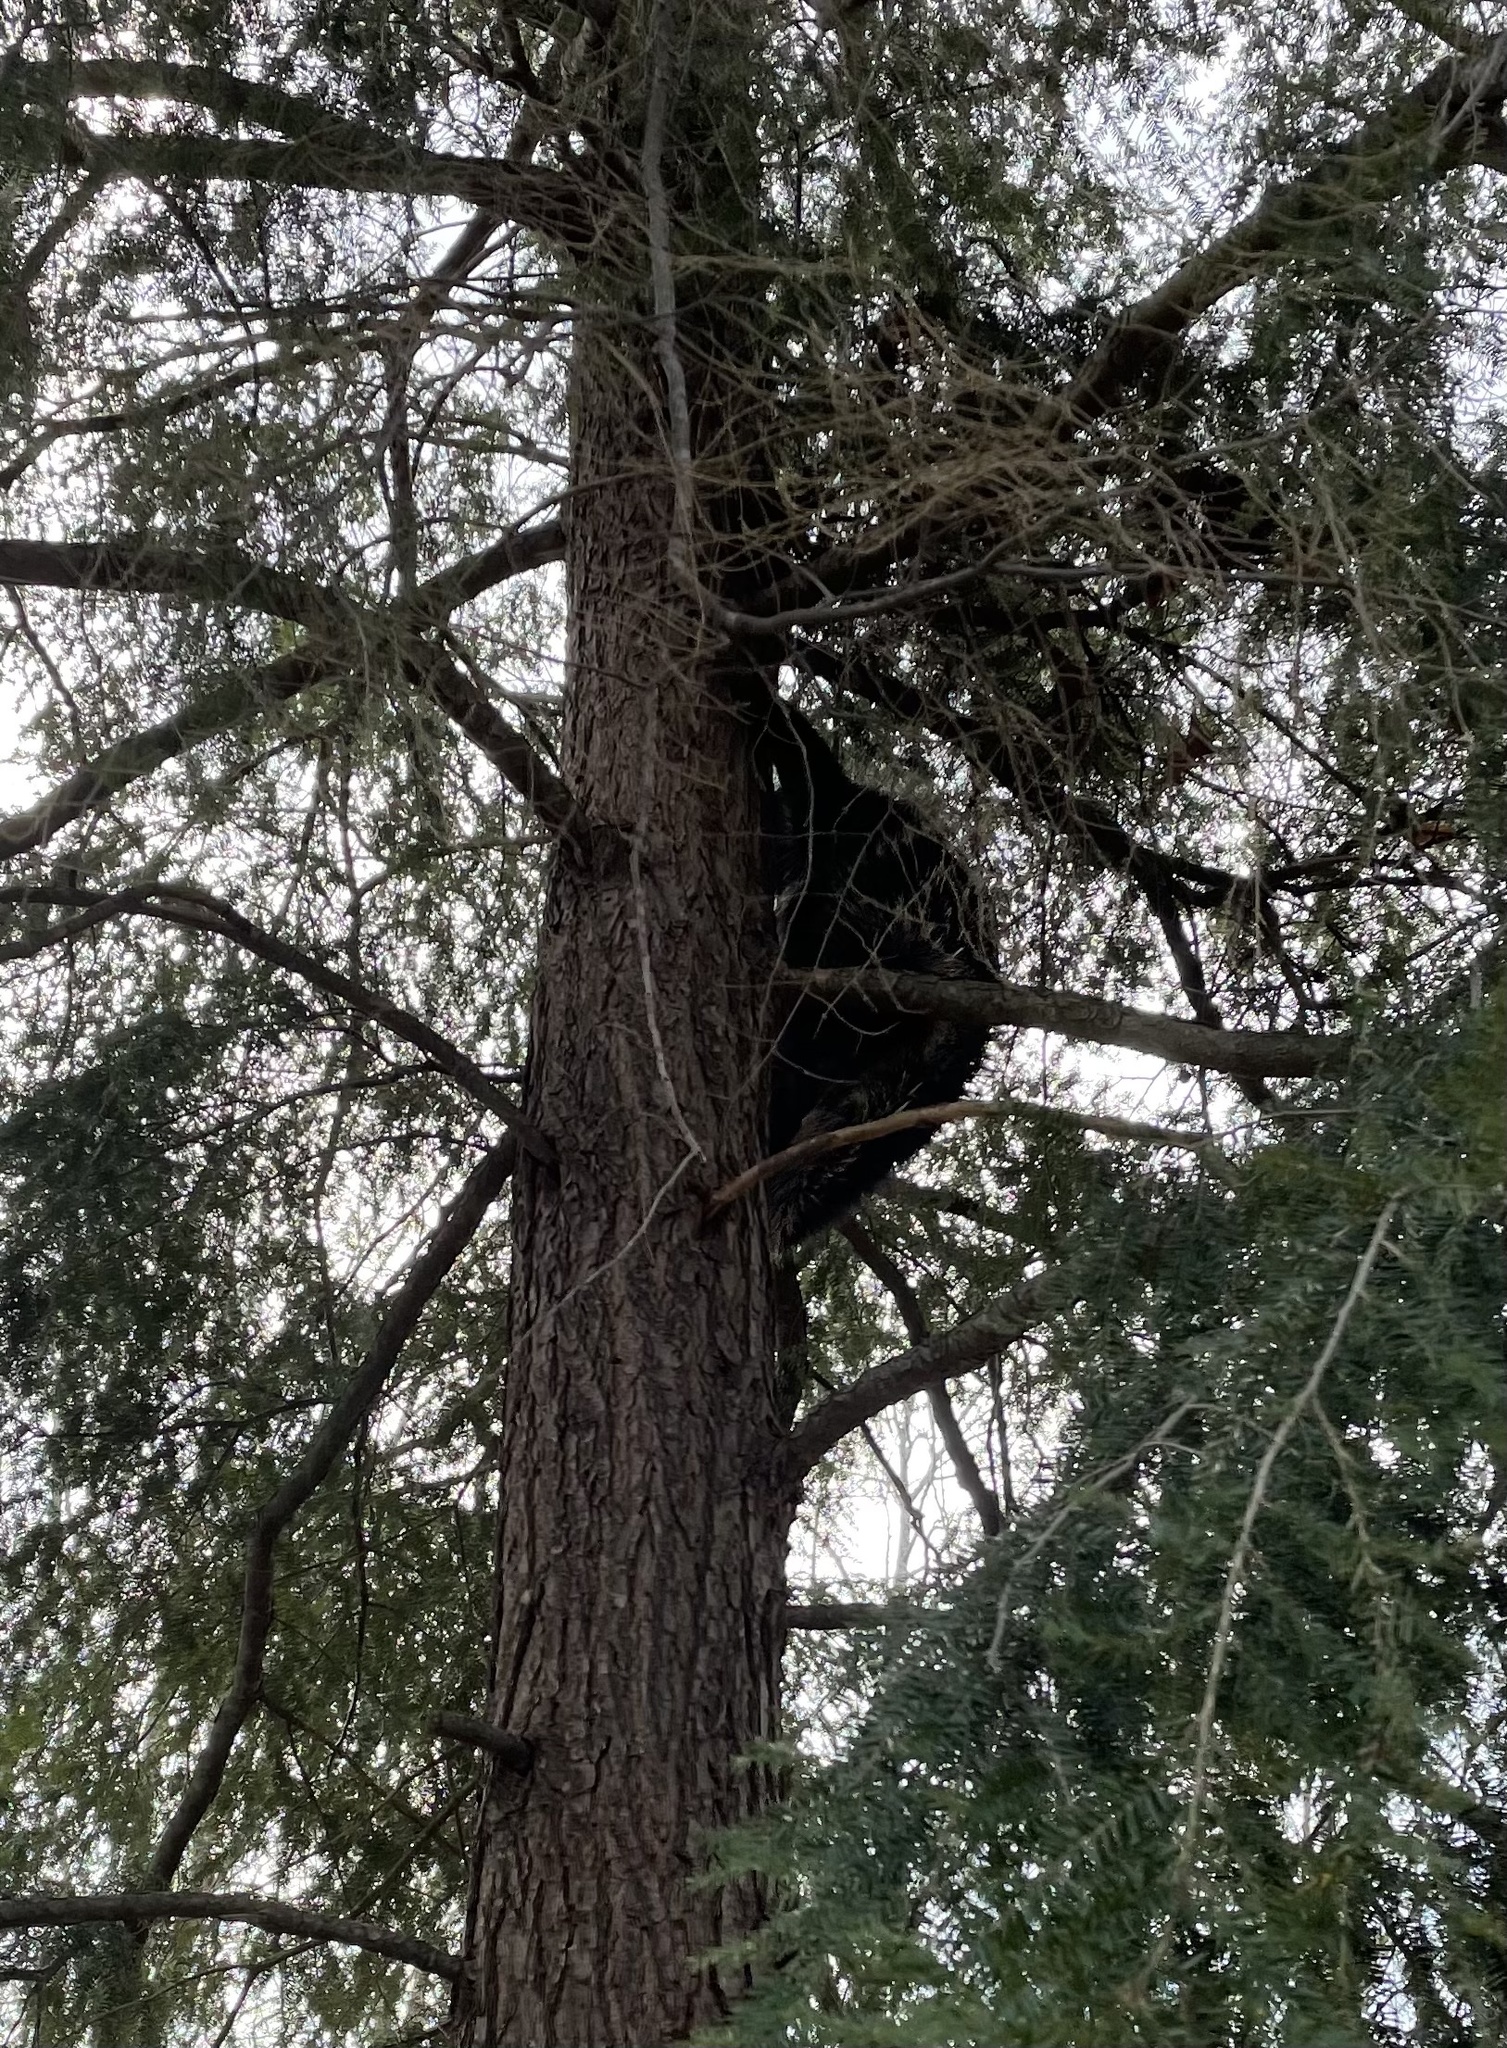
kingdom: Animalia
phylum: Chordata
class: Mammalia
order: Rodentia
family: Erethizontidae
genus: Erethizon
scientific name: Erethizon dorsatus
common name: North american porcupine
